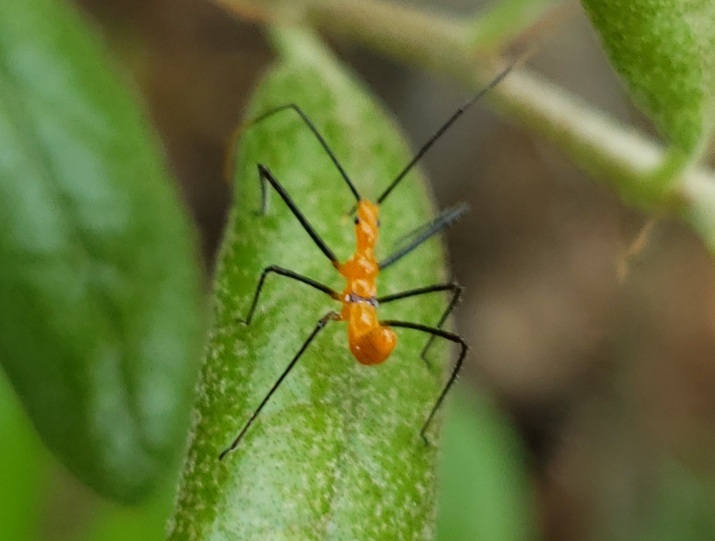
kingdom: Animalia
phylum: Arthropoda
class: Insecta
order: Hemiptera
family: Reduviidae
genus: Zelus
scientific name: Zelus longipes
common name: Milkweed assassin bug
